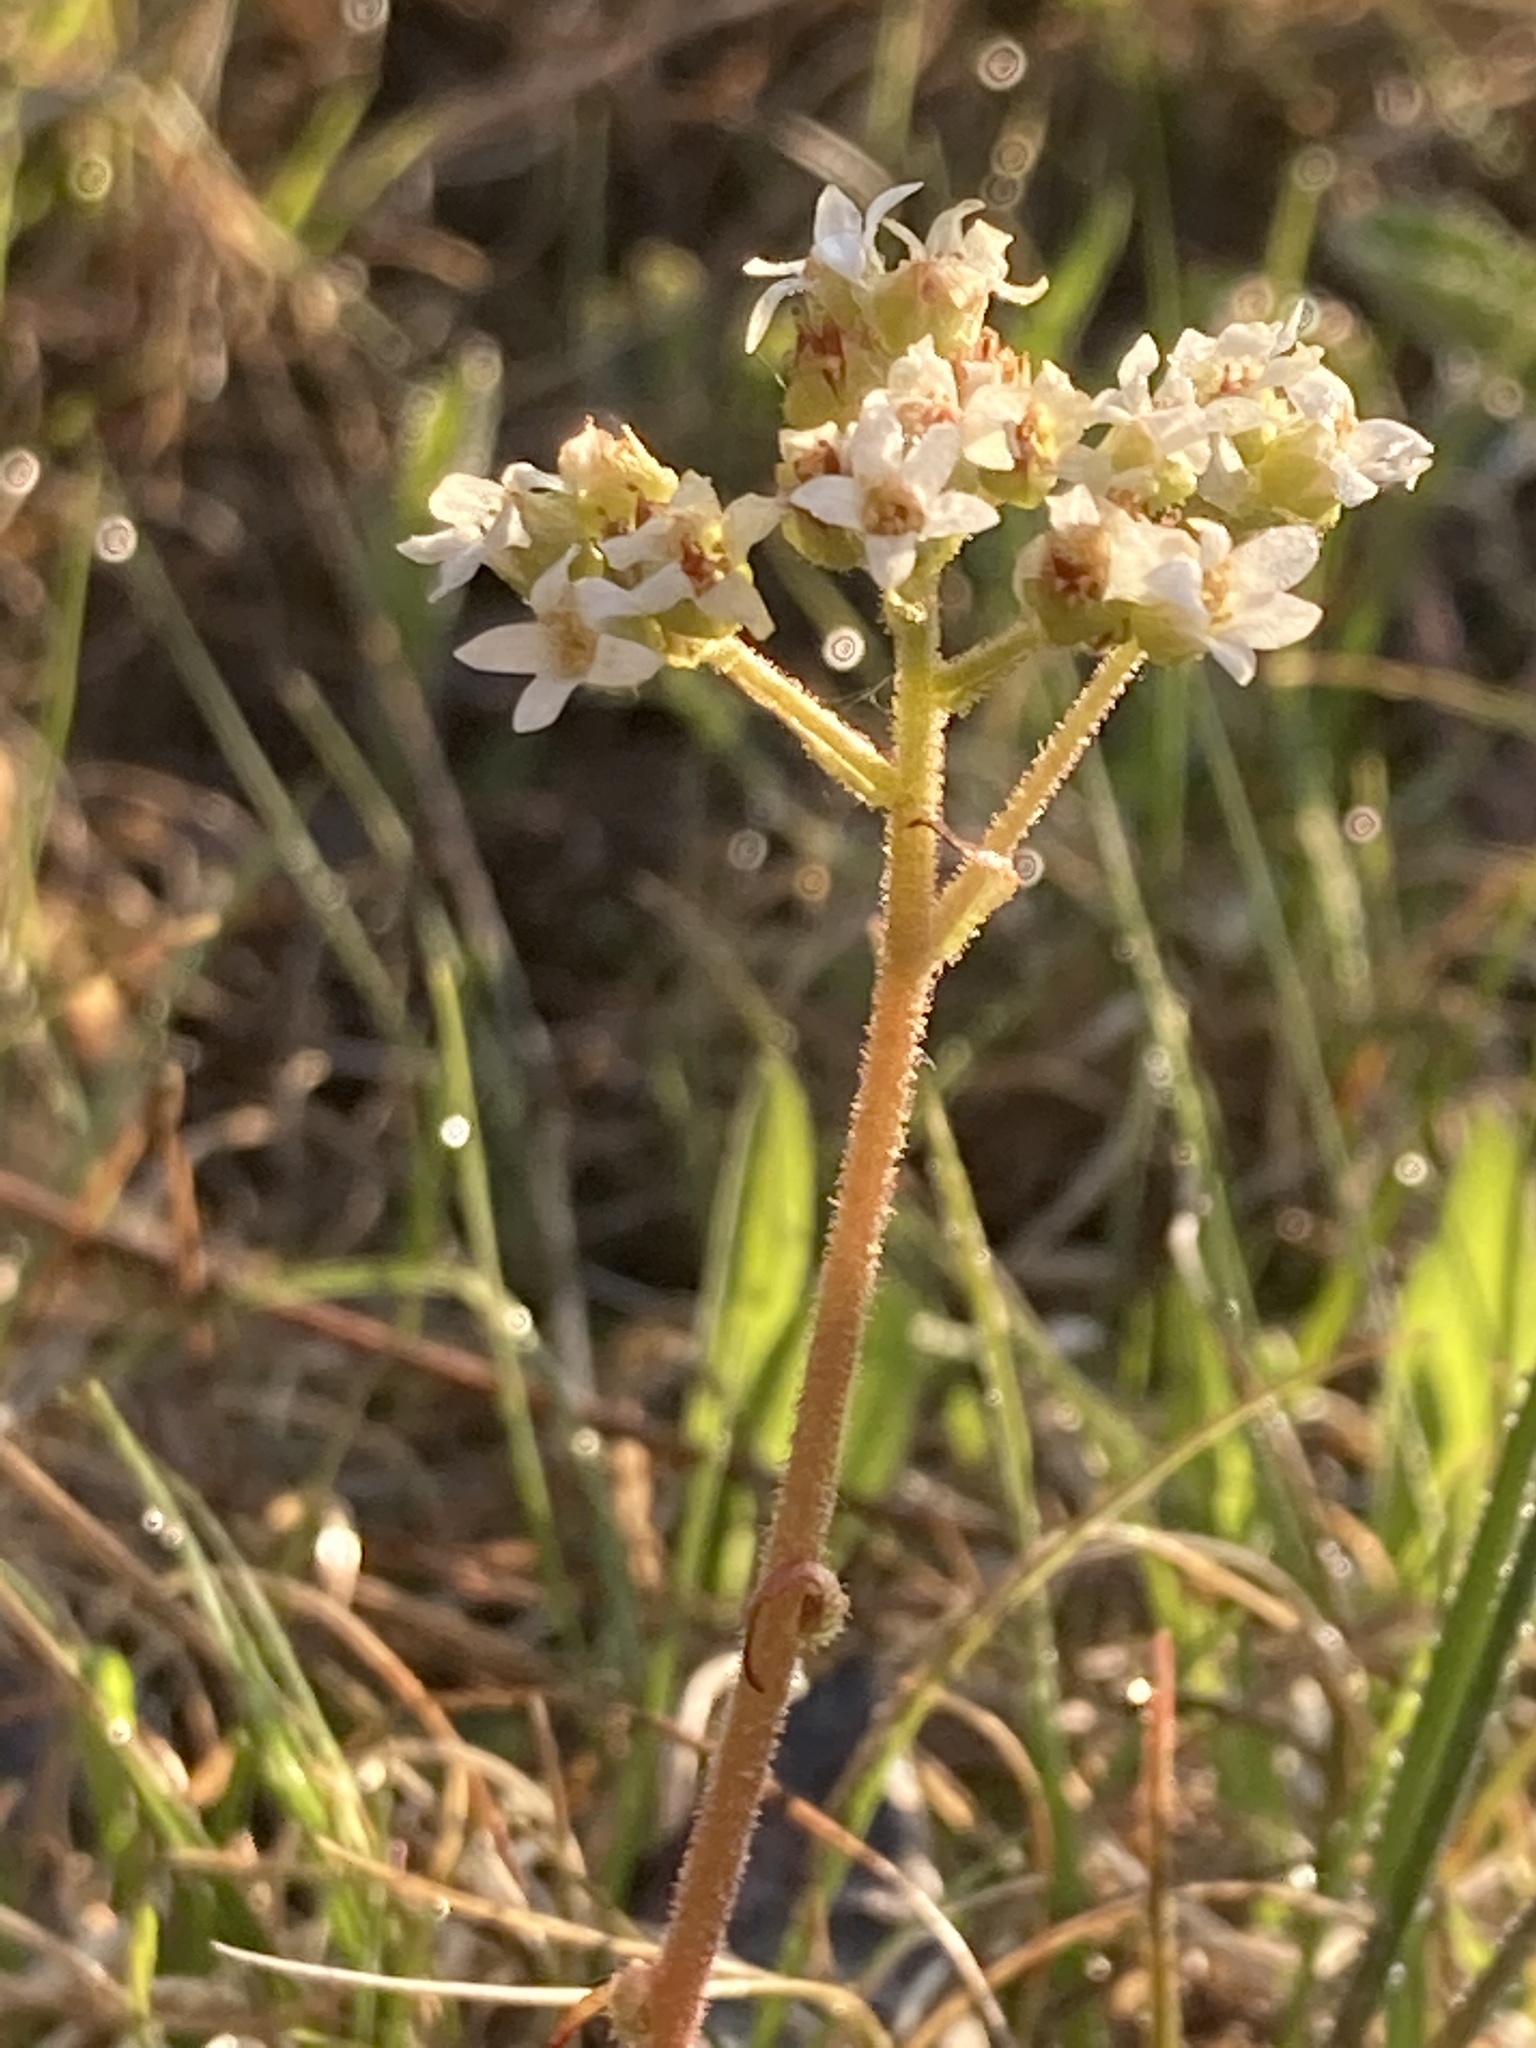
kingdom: Plantae
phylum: Tracheophyta
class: Magnoliopsida
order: Saxifragales
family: Saxifragaceae
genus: Micranthes
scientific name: Micranthes virginiensis
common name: Early saxifrage
